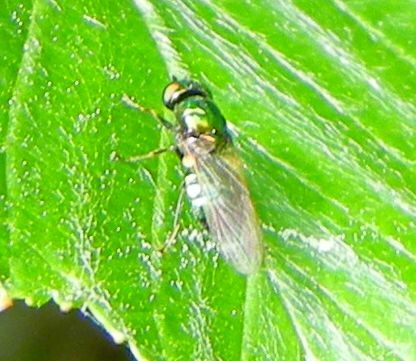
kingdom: Animalia
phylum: Arthropoda
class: Insecta
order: Diptera
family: Stratiomyidae
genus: Microchrysa
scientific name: Microchrysa polita
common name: Black-horned gem
